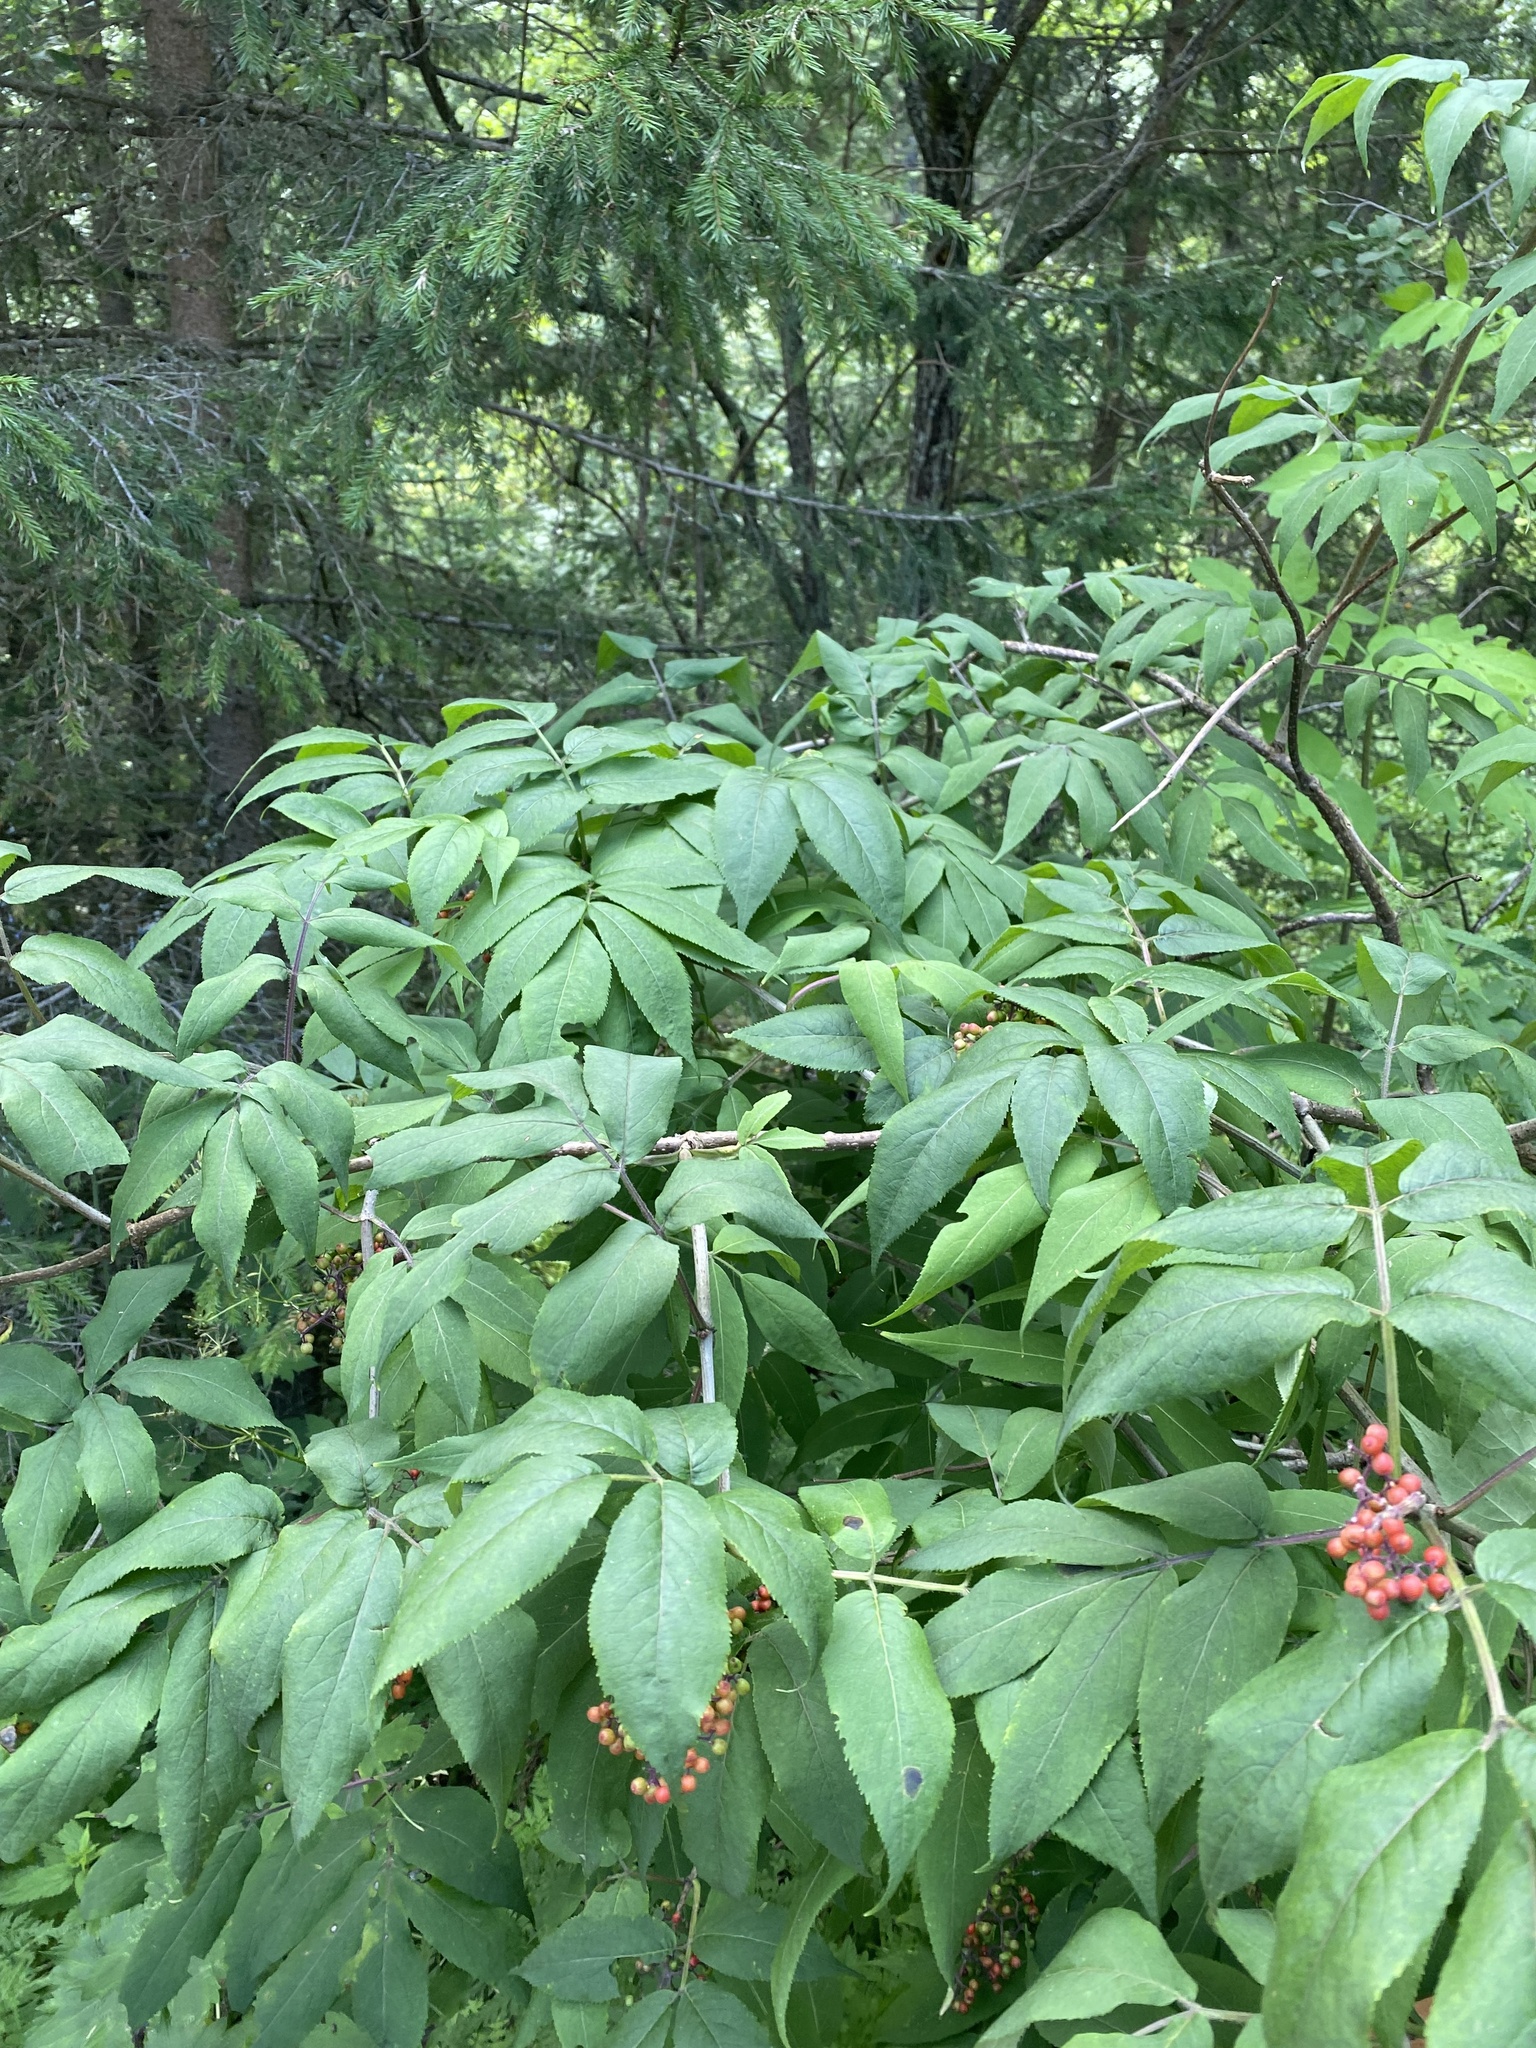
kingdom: Plantae
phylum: Tracheophyta
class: Magnoliopsida
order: Dipsacales
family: Viburnaceae
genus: Sambucus
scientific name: Sambucus sibirica
